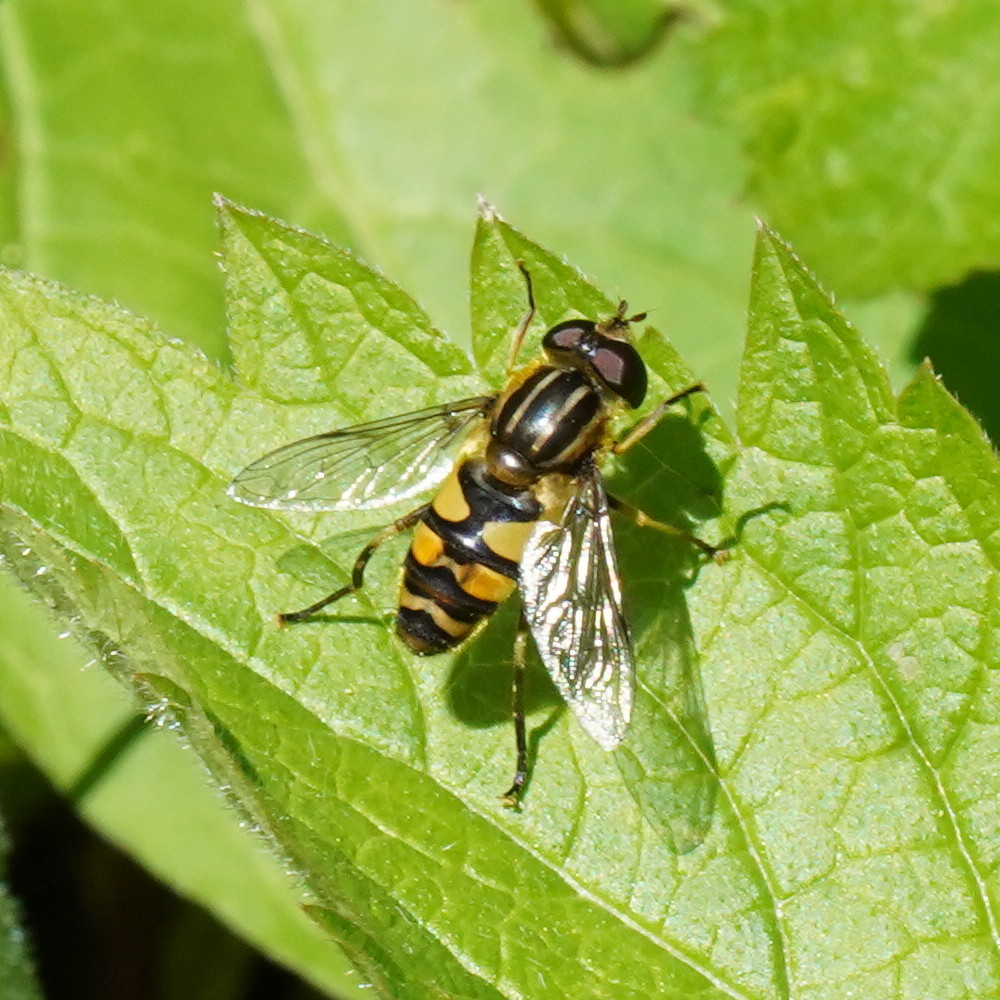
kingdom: Animalia
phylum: Arthropoda
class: Insecta
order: Diptera
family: Syrphidae
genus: Helophilus
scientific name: Helophilus fasciatus
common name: Narrow-headed marsh fly
